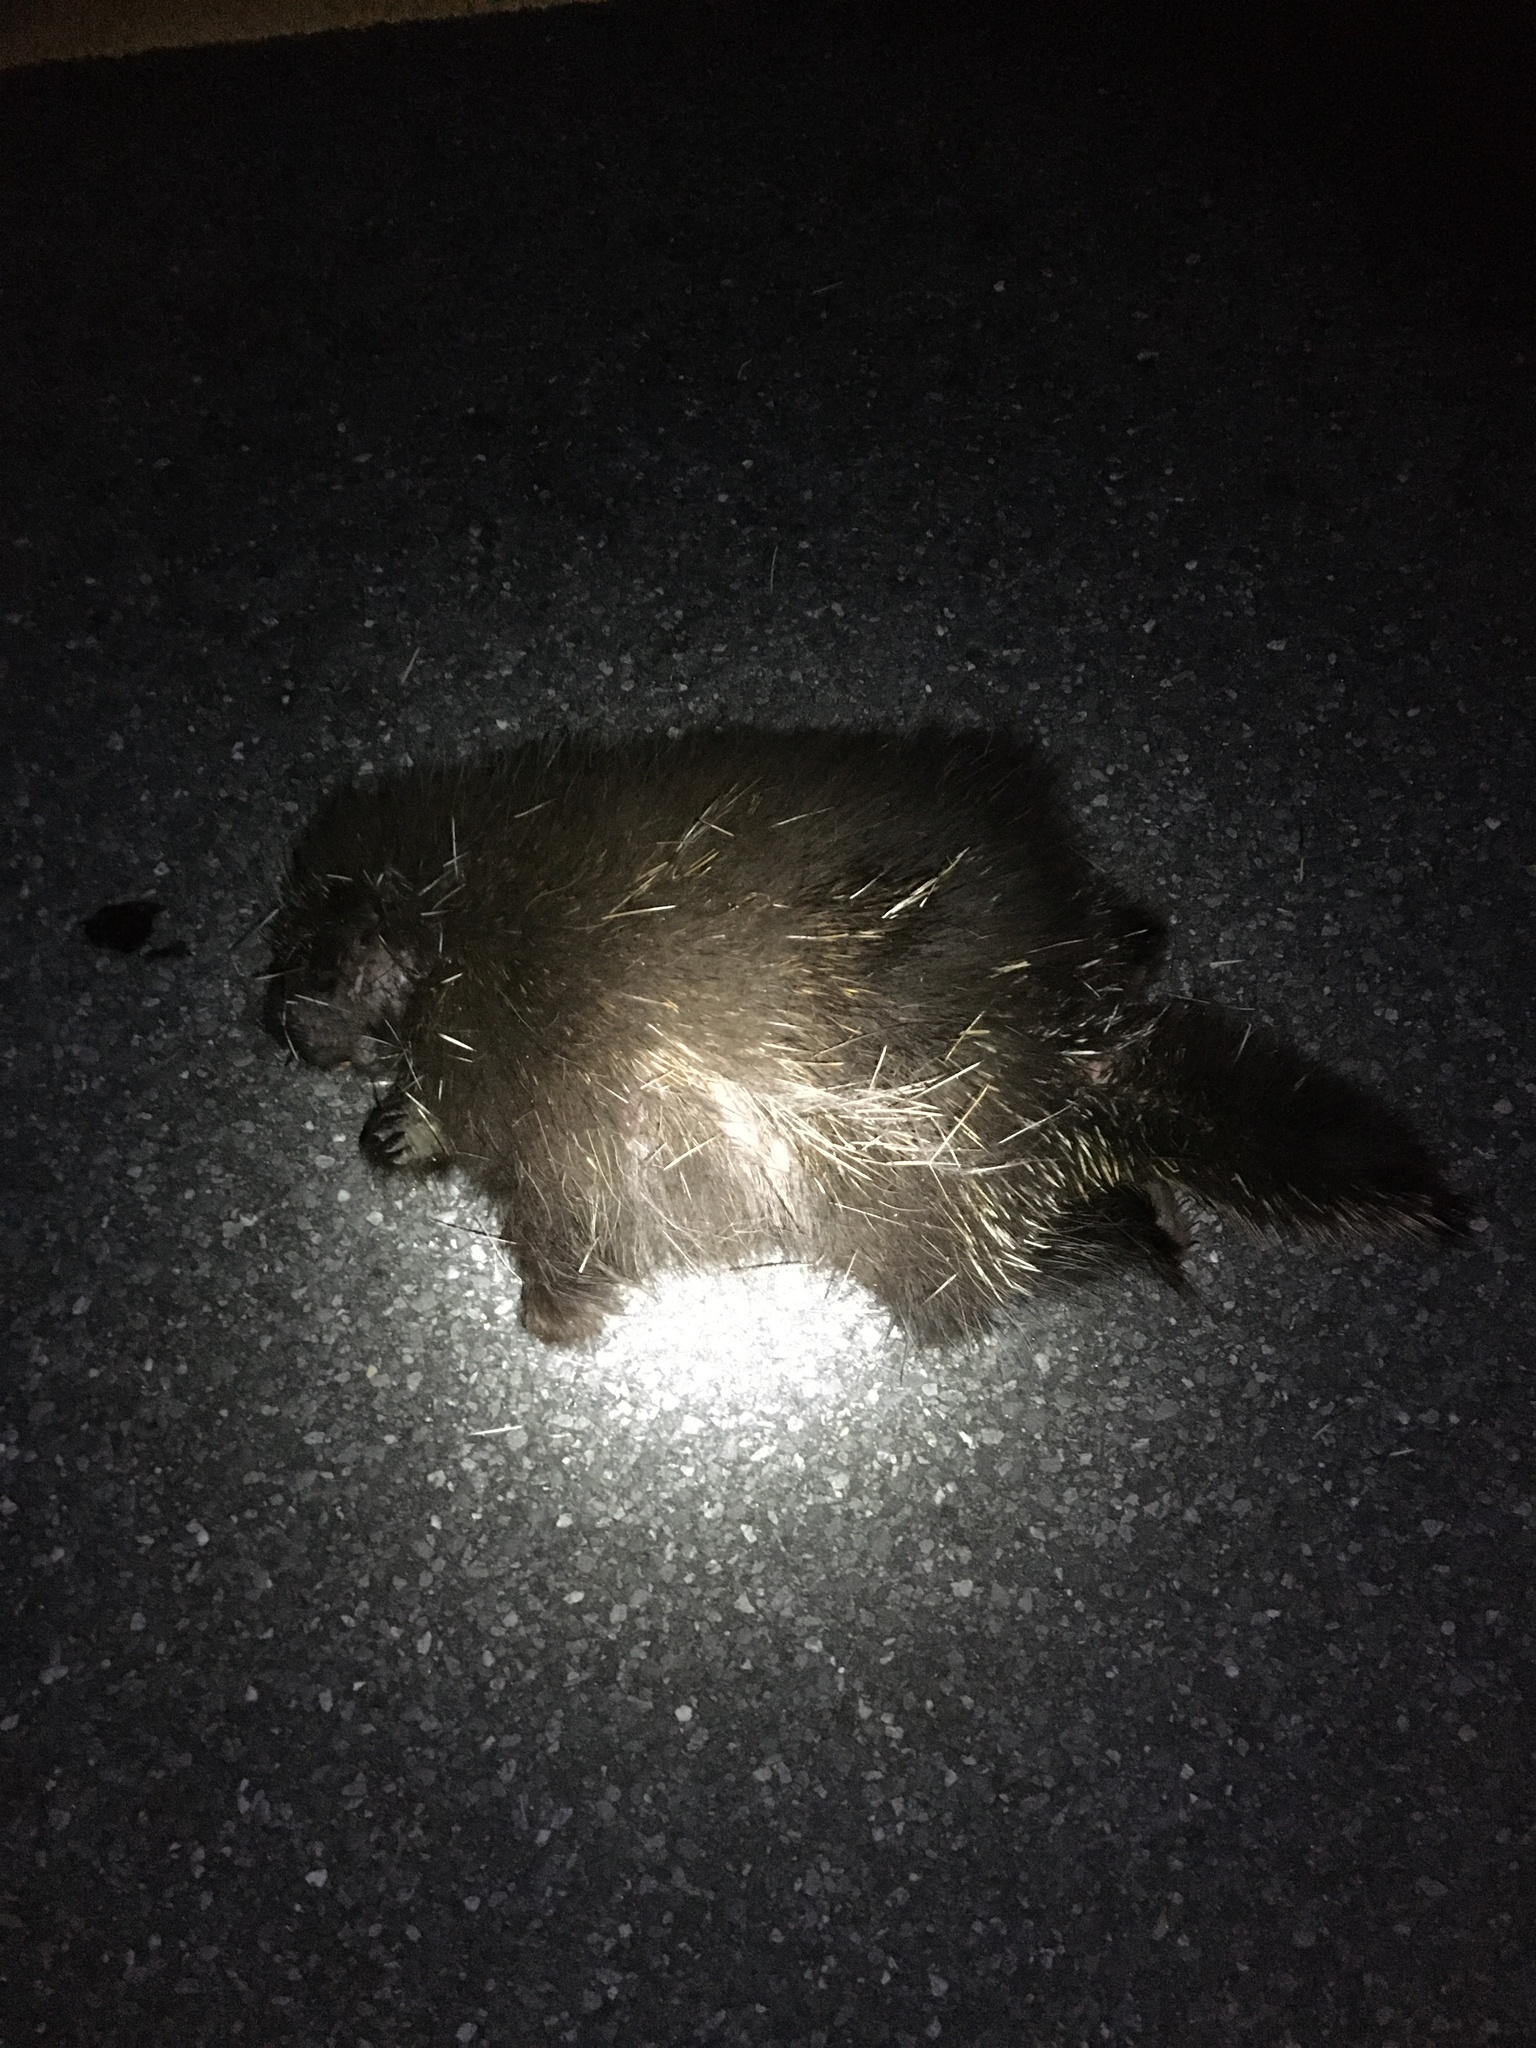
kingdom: Animalia
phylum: Chordata
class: Mammalia
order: Rodentia
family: Erethizontidae
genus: Erethizon
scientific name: Erethizon dorsatus
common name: North american porcupine
